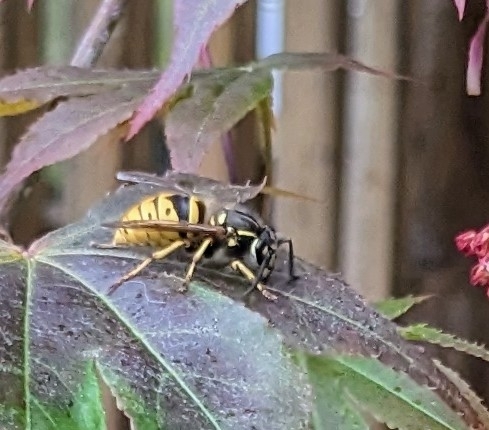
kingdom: Animalia
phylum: Arthropoda
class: Insecta
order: Hymenoptera
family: Vespidae
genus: Vespula
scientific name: Vespula vulgaris
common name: Common wasp
